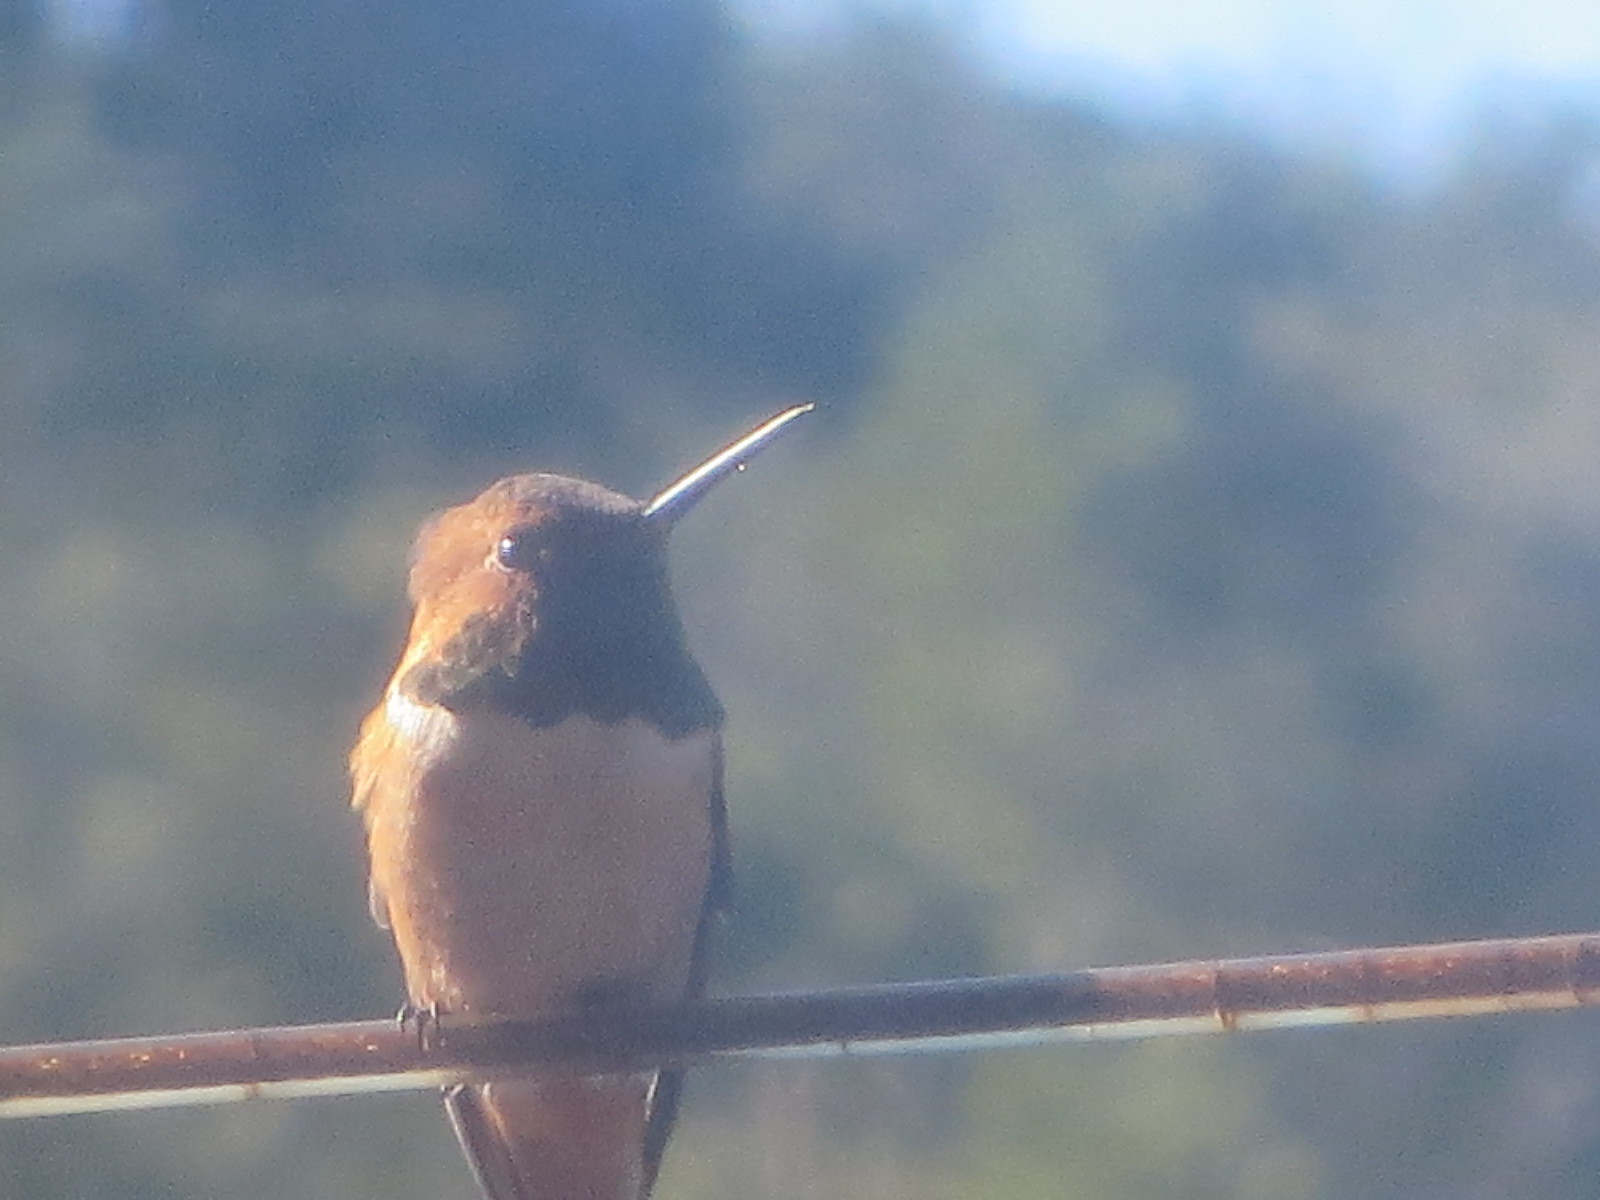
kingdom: Animalia
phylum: Chordata
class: Aves
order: Apodiformes
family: Trochilidae
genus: Selasphorus
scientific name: Selasphorus rufus
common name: Rufous hummingbird
